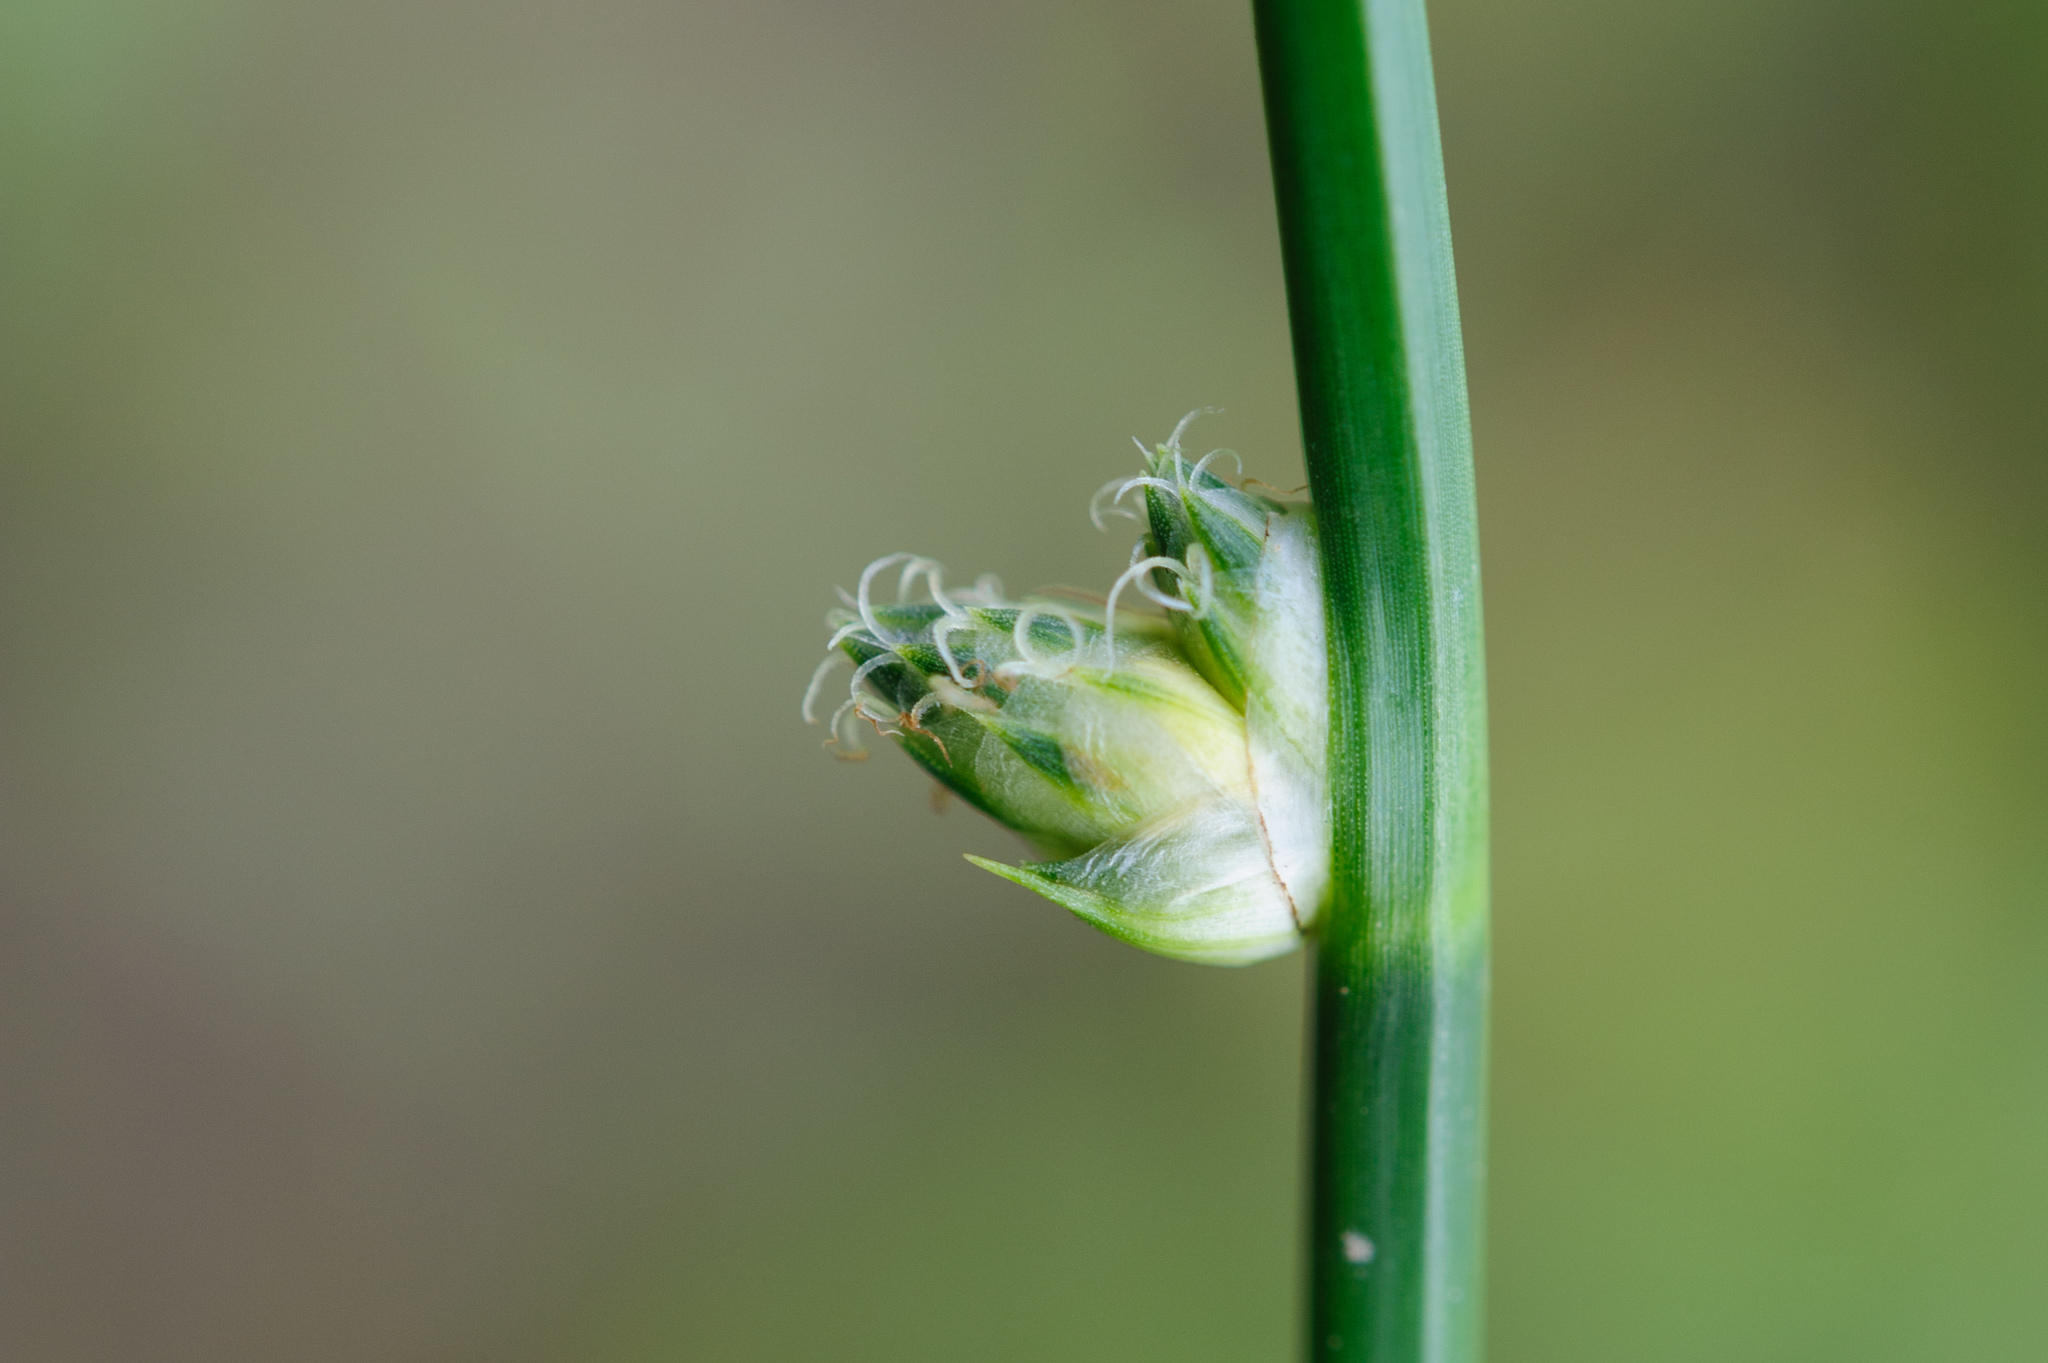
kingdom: Plantae
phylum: Tracheophyta
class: Liliopsida
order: Poales
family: Cyperaceae
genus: Schoenoplectiella
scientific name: Schoenoplectiella juncoides
